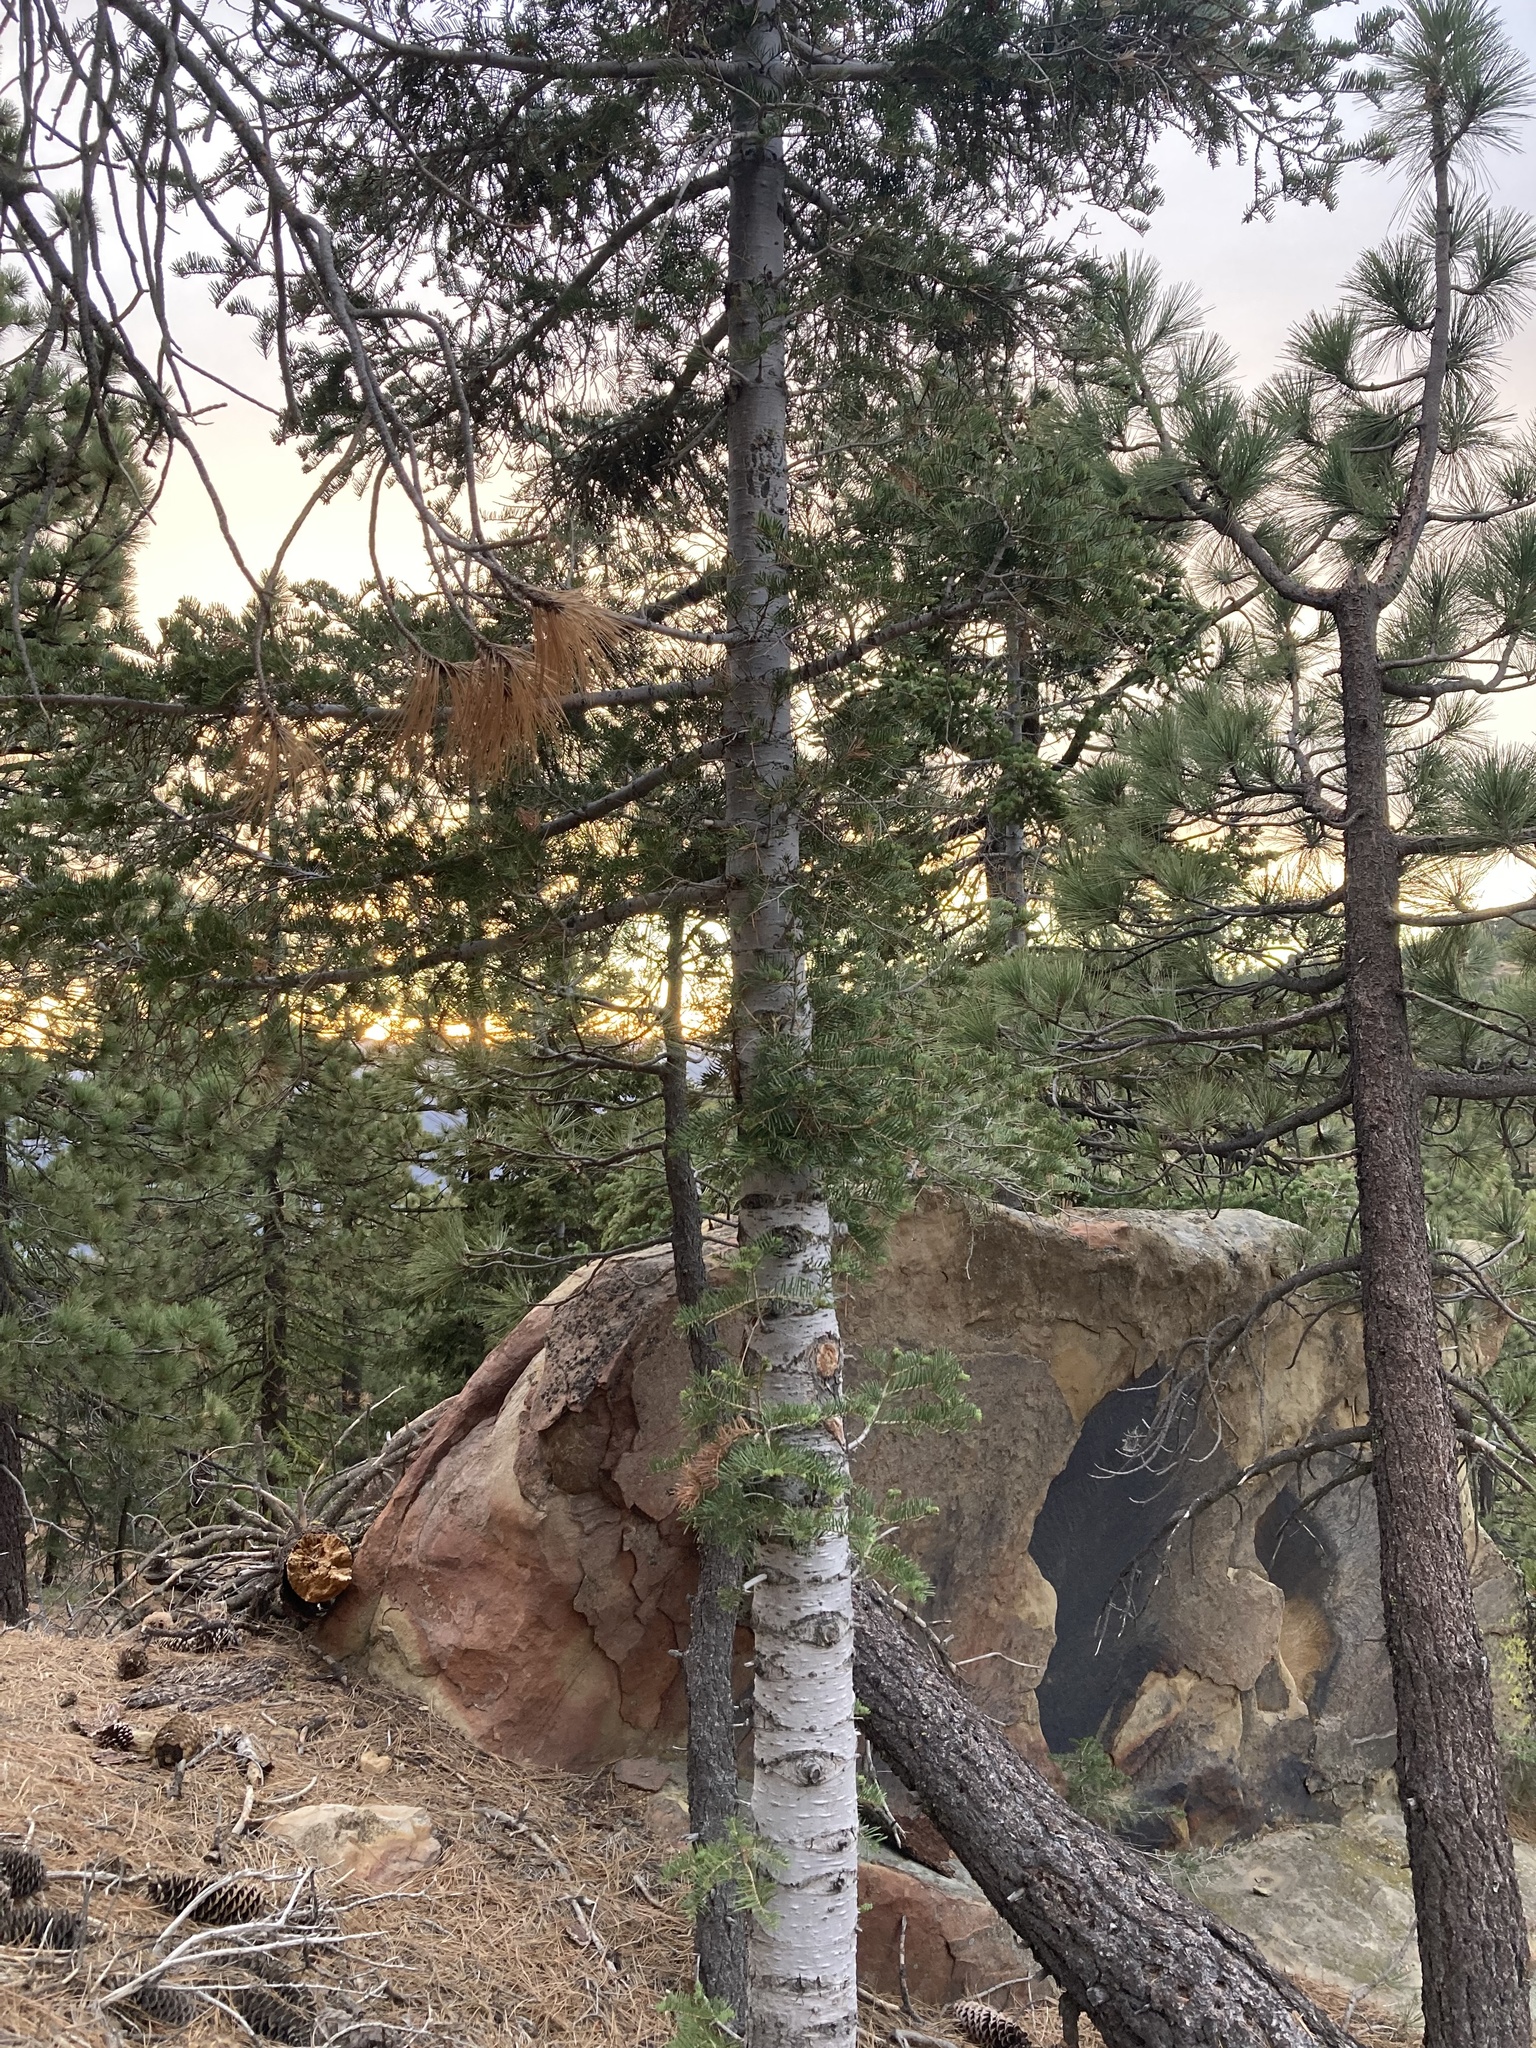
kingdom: Plantae
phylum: Tracheophyta
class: Pinopsida
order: Pinales
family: Pinaceae
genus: Abies
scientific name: Abies concolor
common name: Colorado fir
